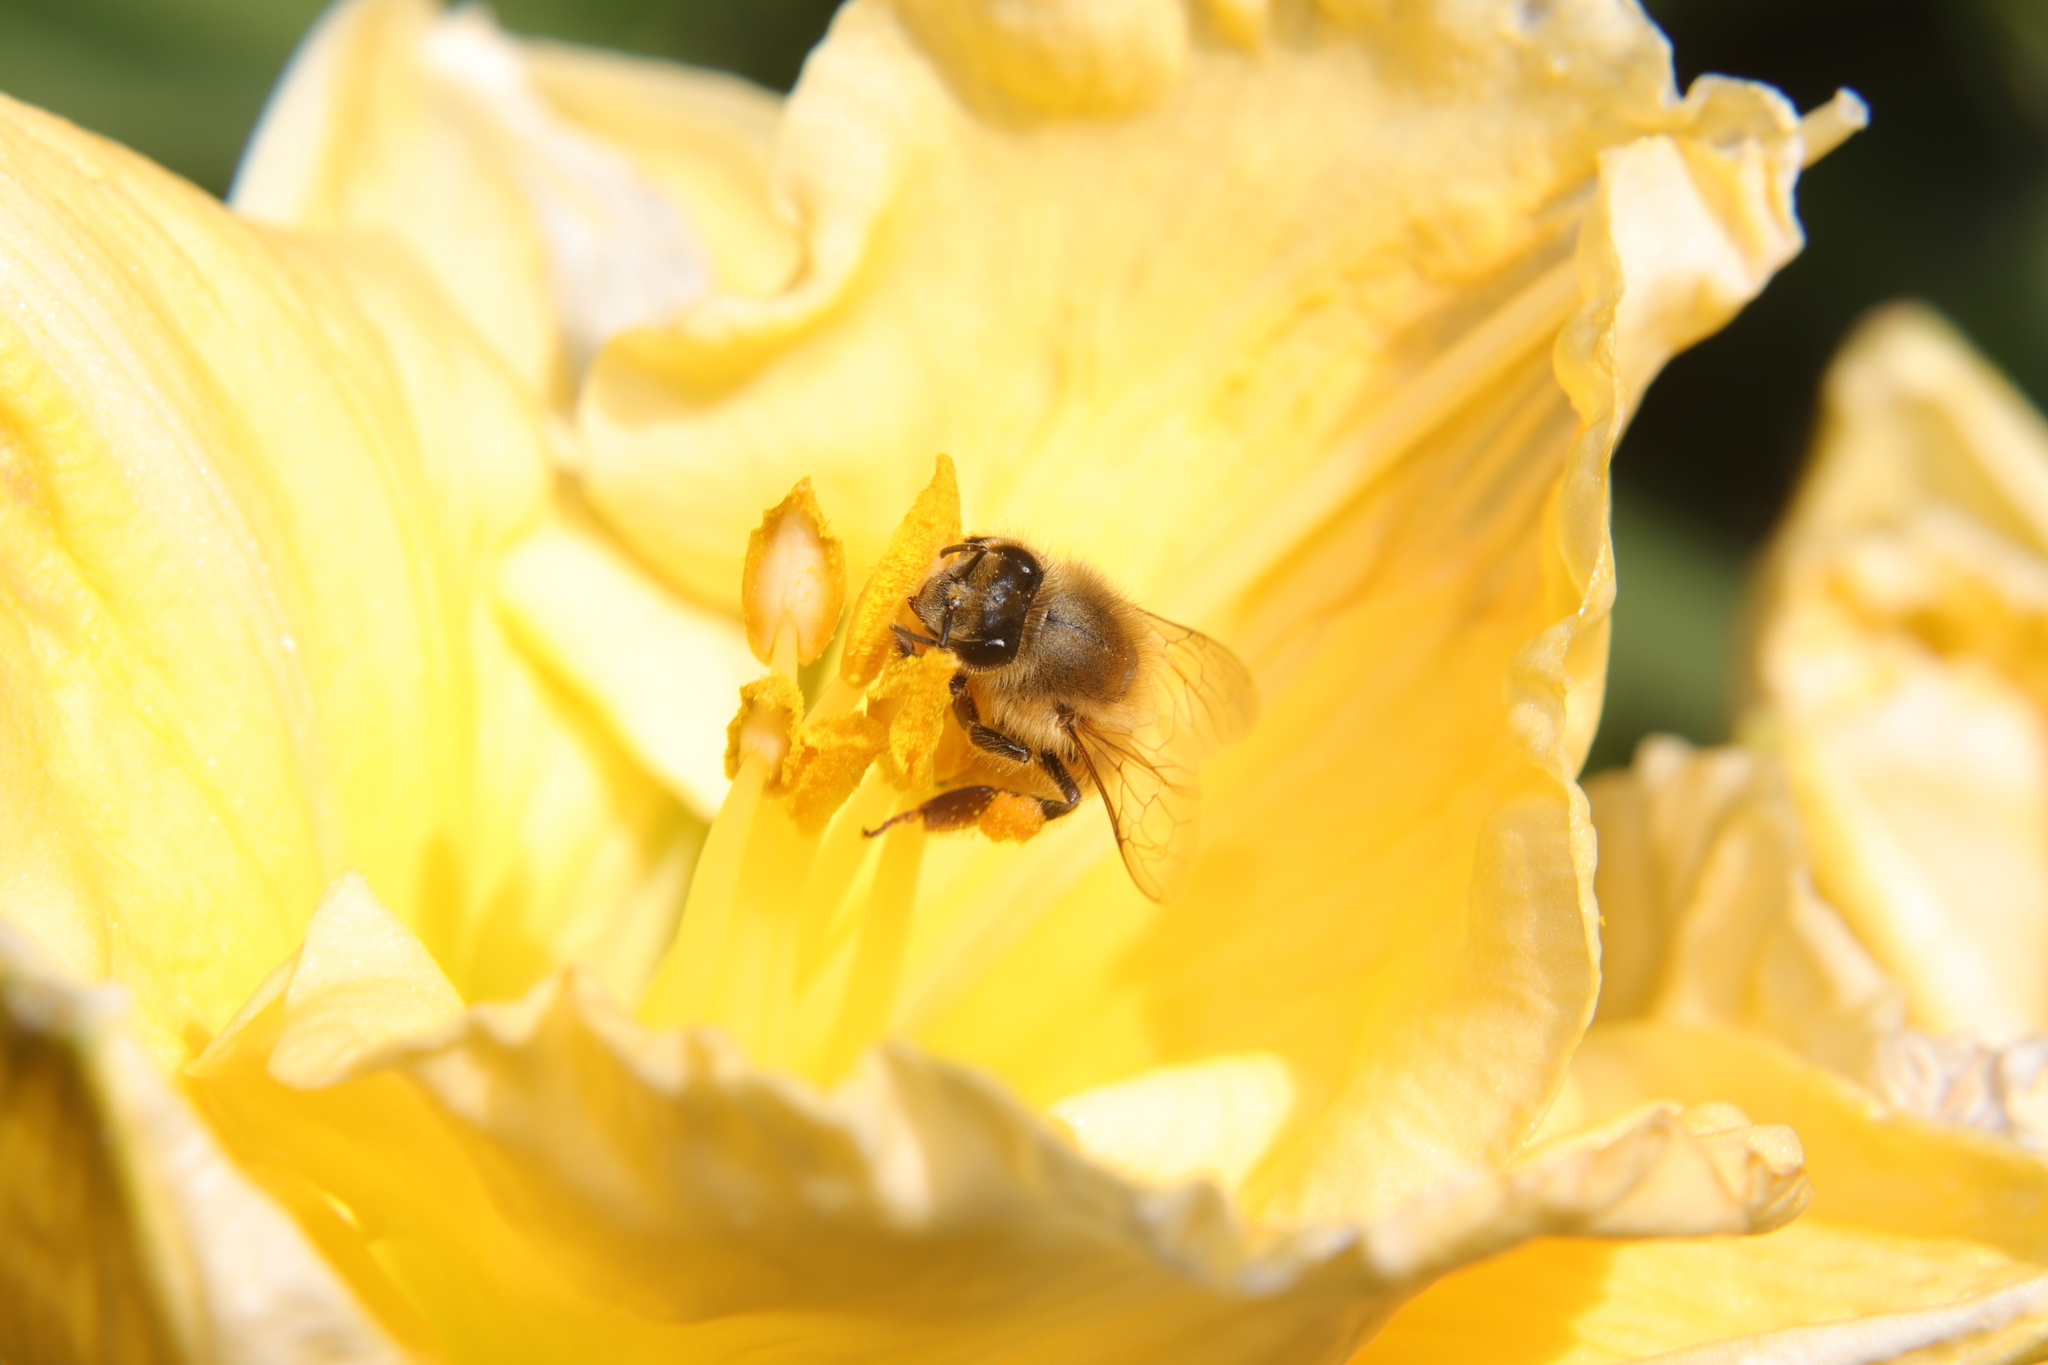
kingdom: Animalia
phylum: Arthropoda
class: Insecta
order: Hymenoptera
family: Apidae
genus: Apis
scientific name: Apis mellifera
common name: Honey bee
